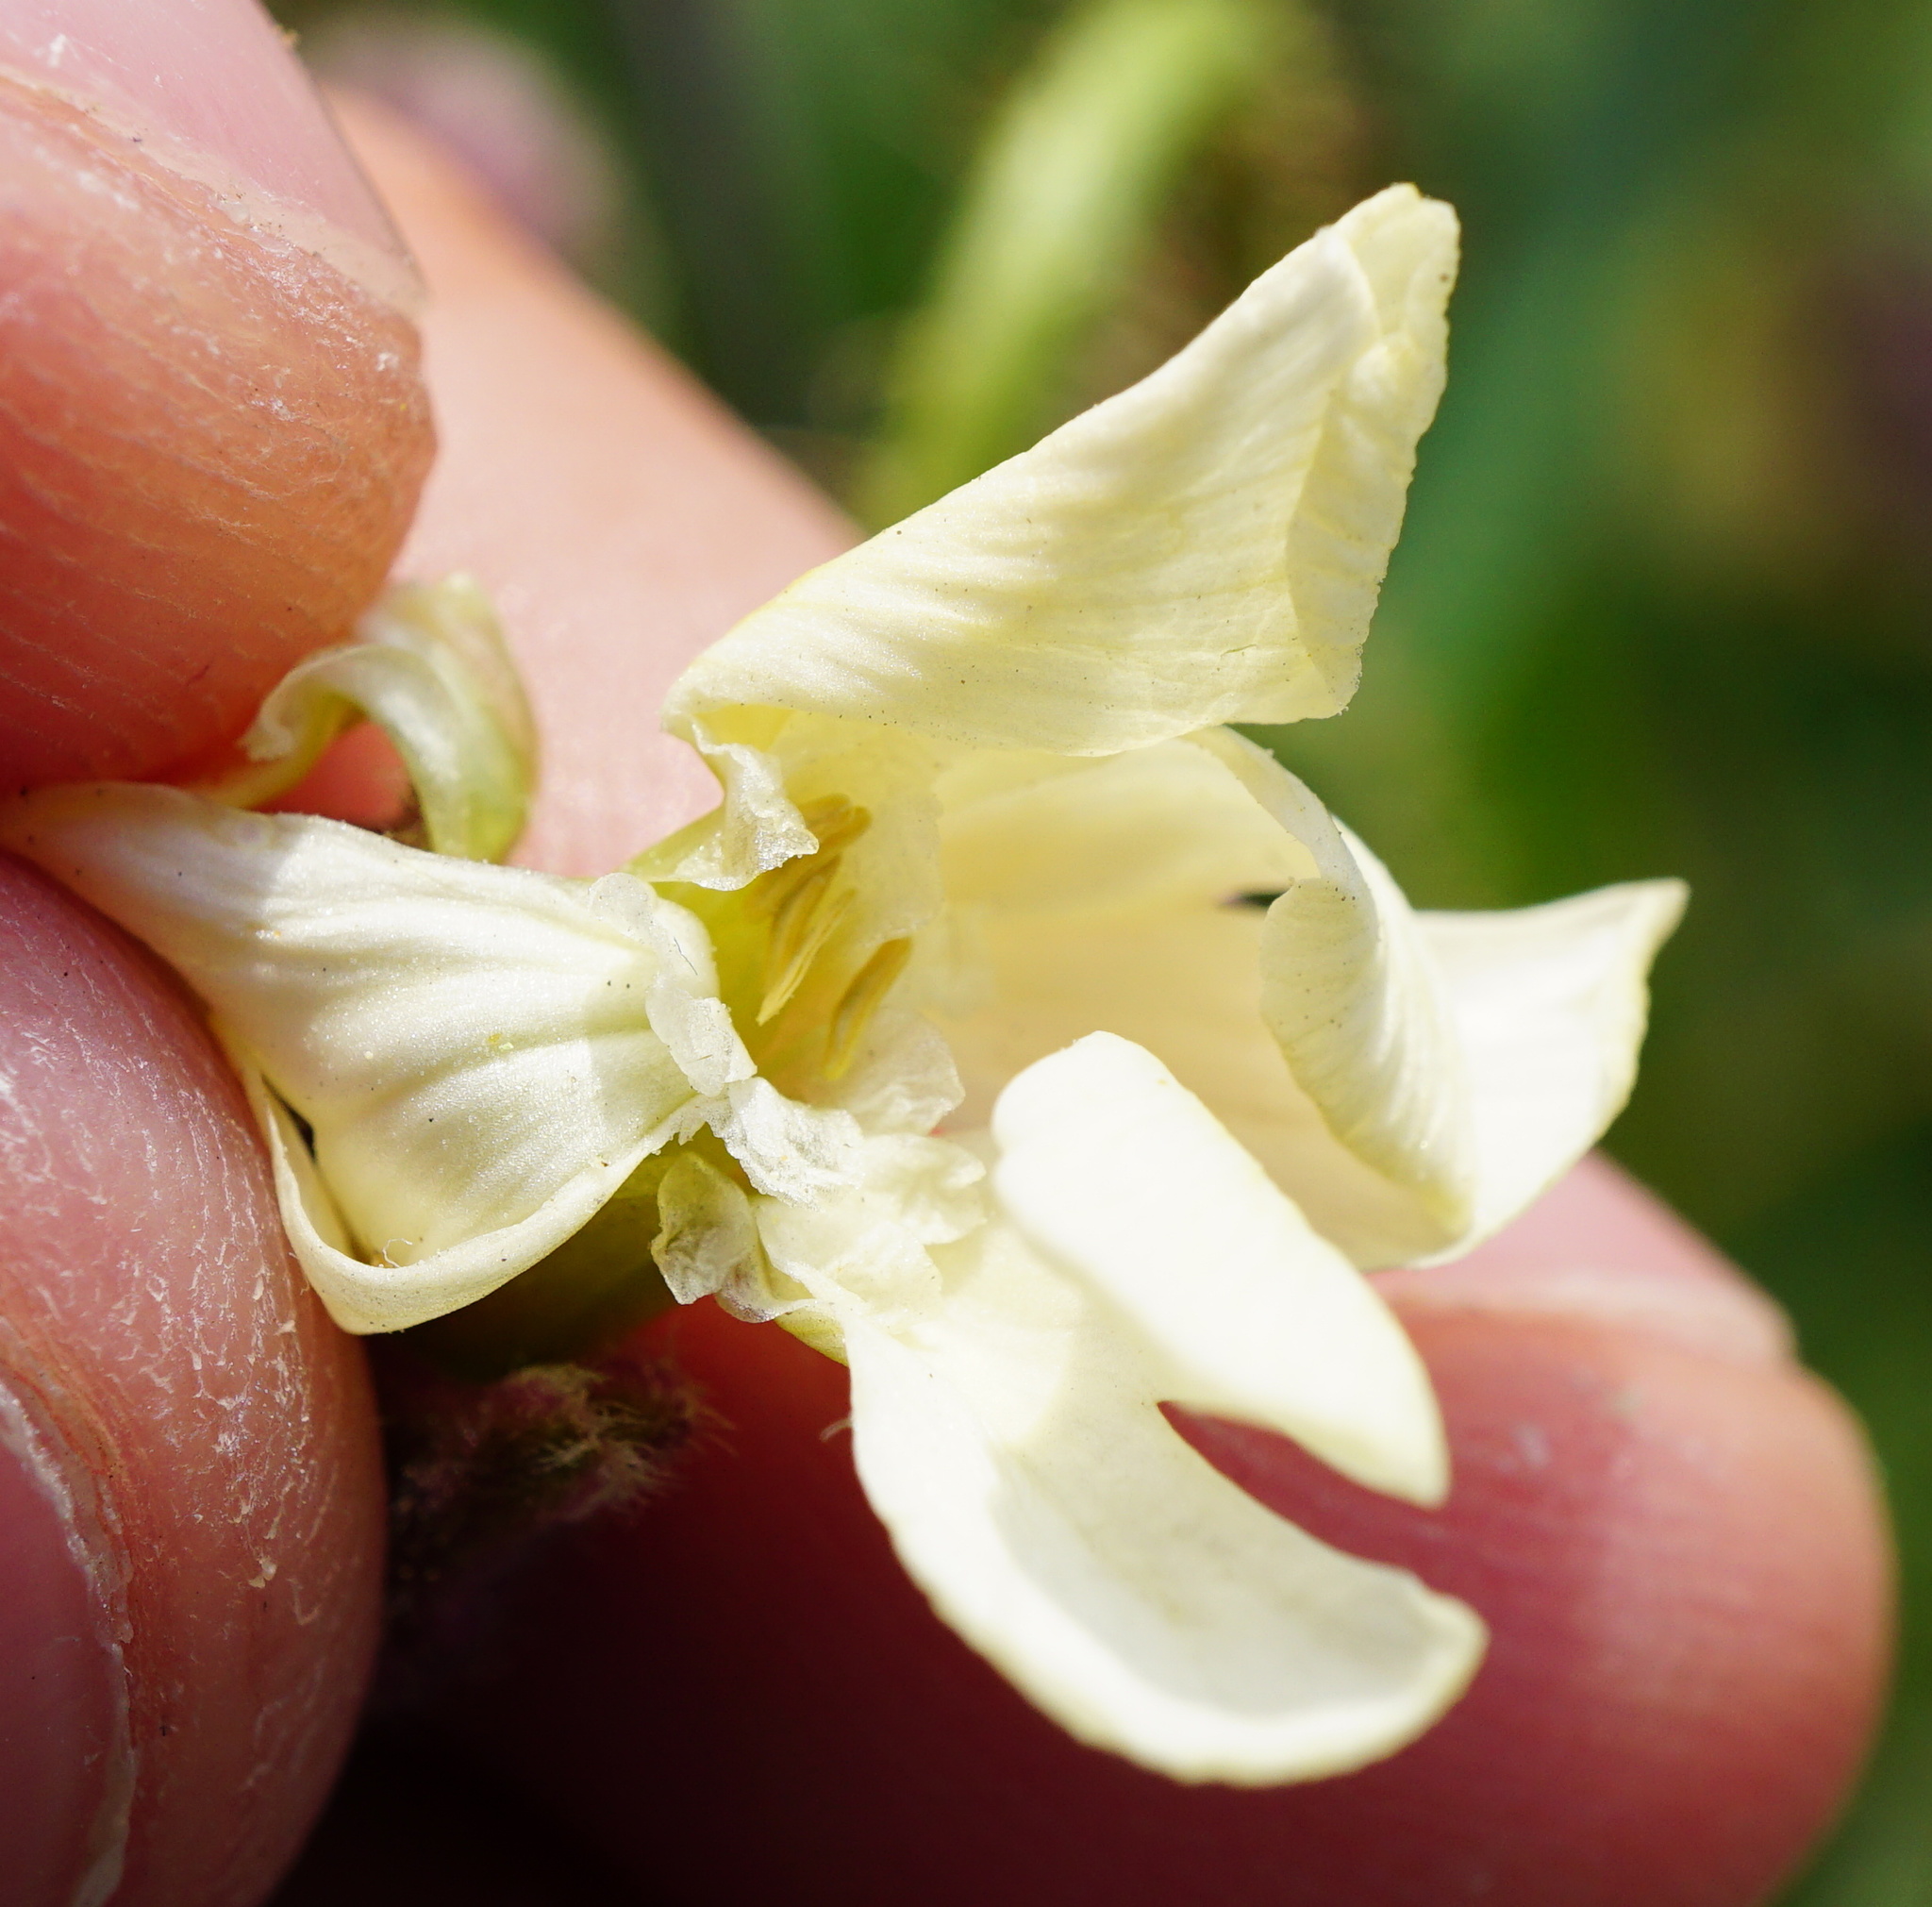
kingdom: Plantae
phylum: Tracheophyta
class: Magnoliopsida
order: Caryophyllales
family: Caryophyllaceae
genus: Silene
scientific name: Silene latifolia
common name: White campion
